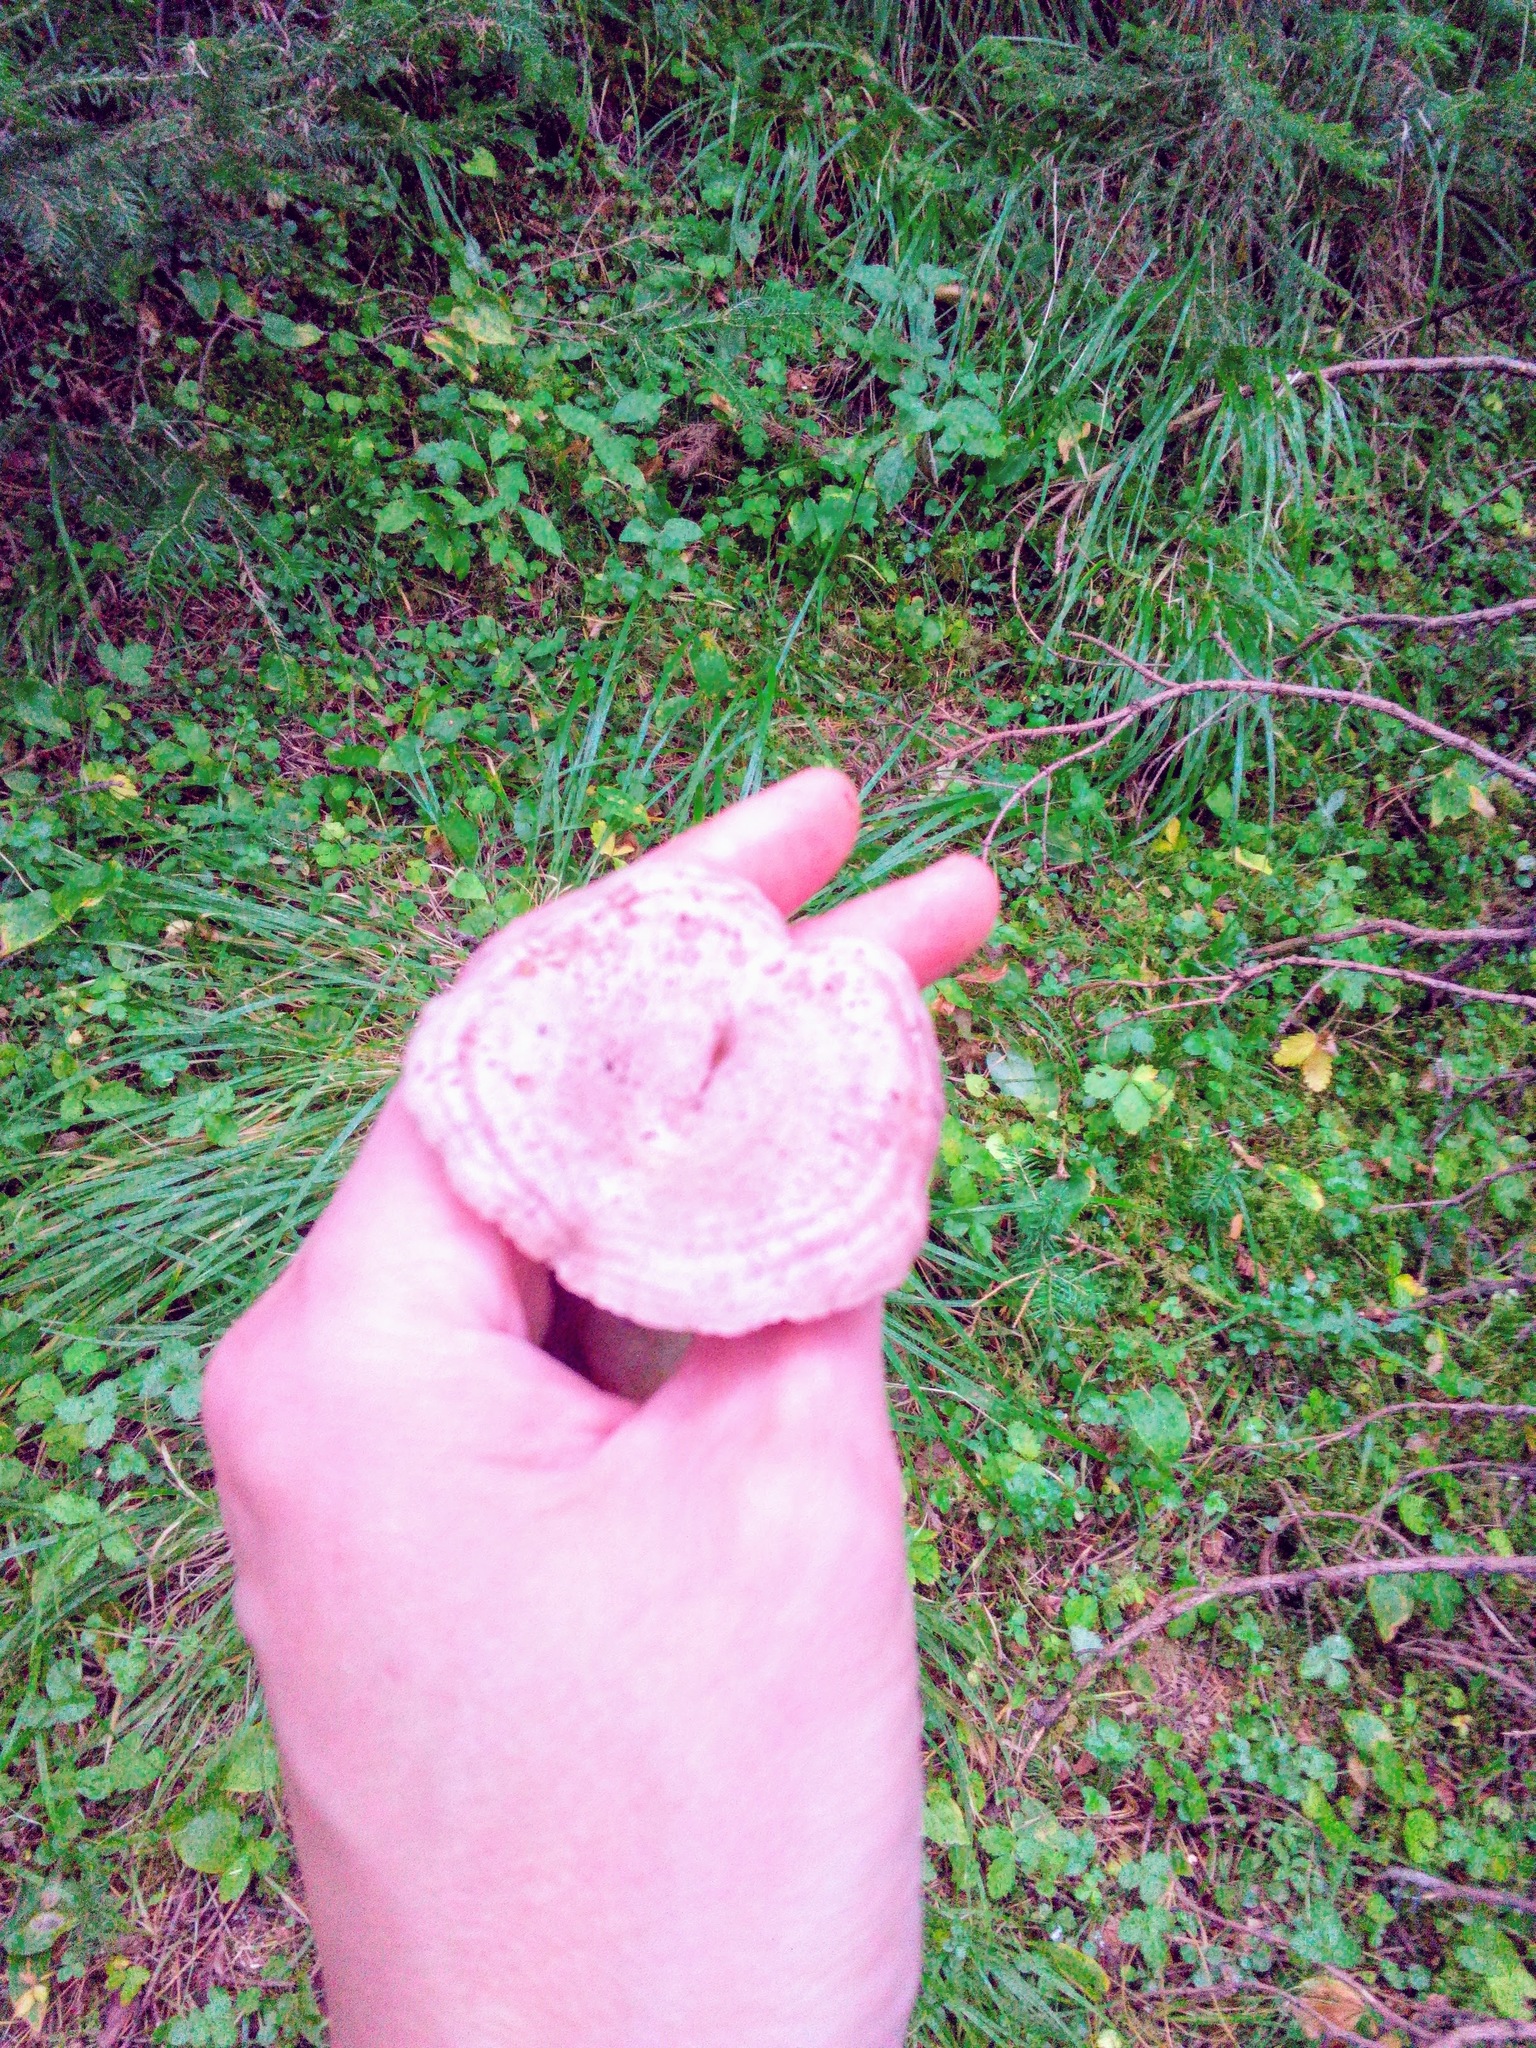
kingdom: Fungi
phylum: Basidiomycota
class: Agaricomycetes
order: Russulales
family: Russulaceae
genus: Lactarius
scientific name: Lactarius flexuosus
